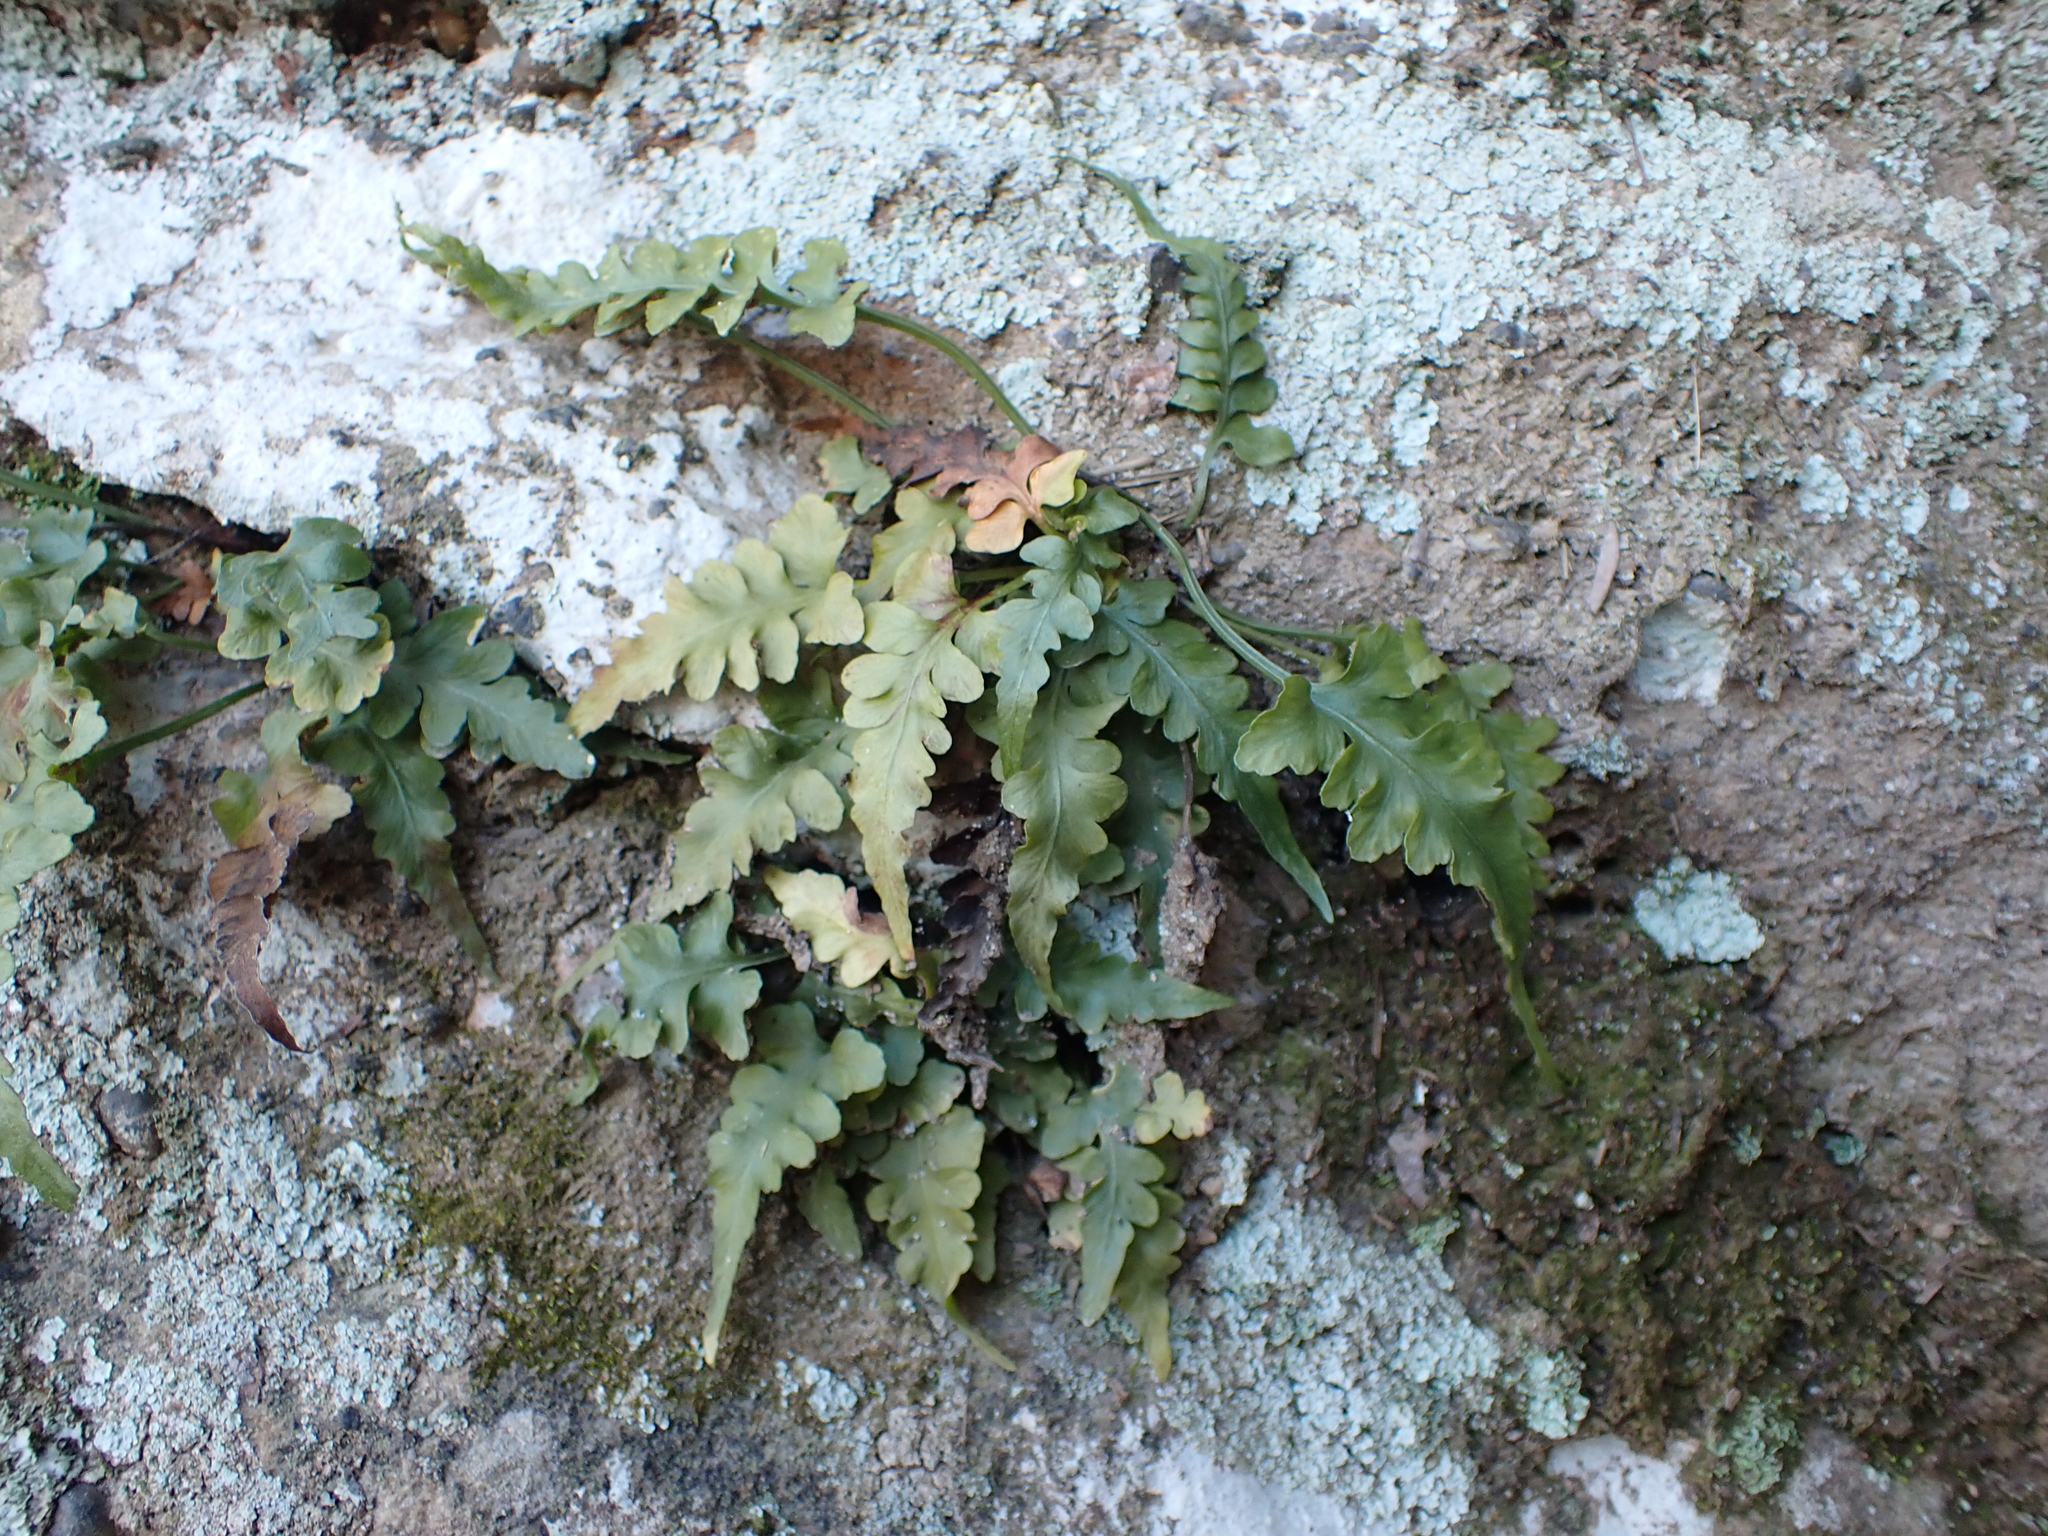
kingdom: Plantae
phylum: Tracheophyta
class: Polypodiopsida
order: Polypodiales
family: Aspleniaceae
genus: Asplenium
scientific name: Asplenium pinnatifidum
